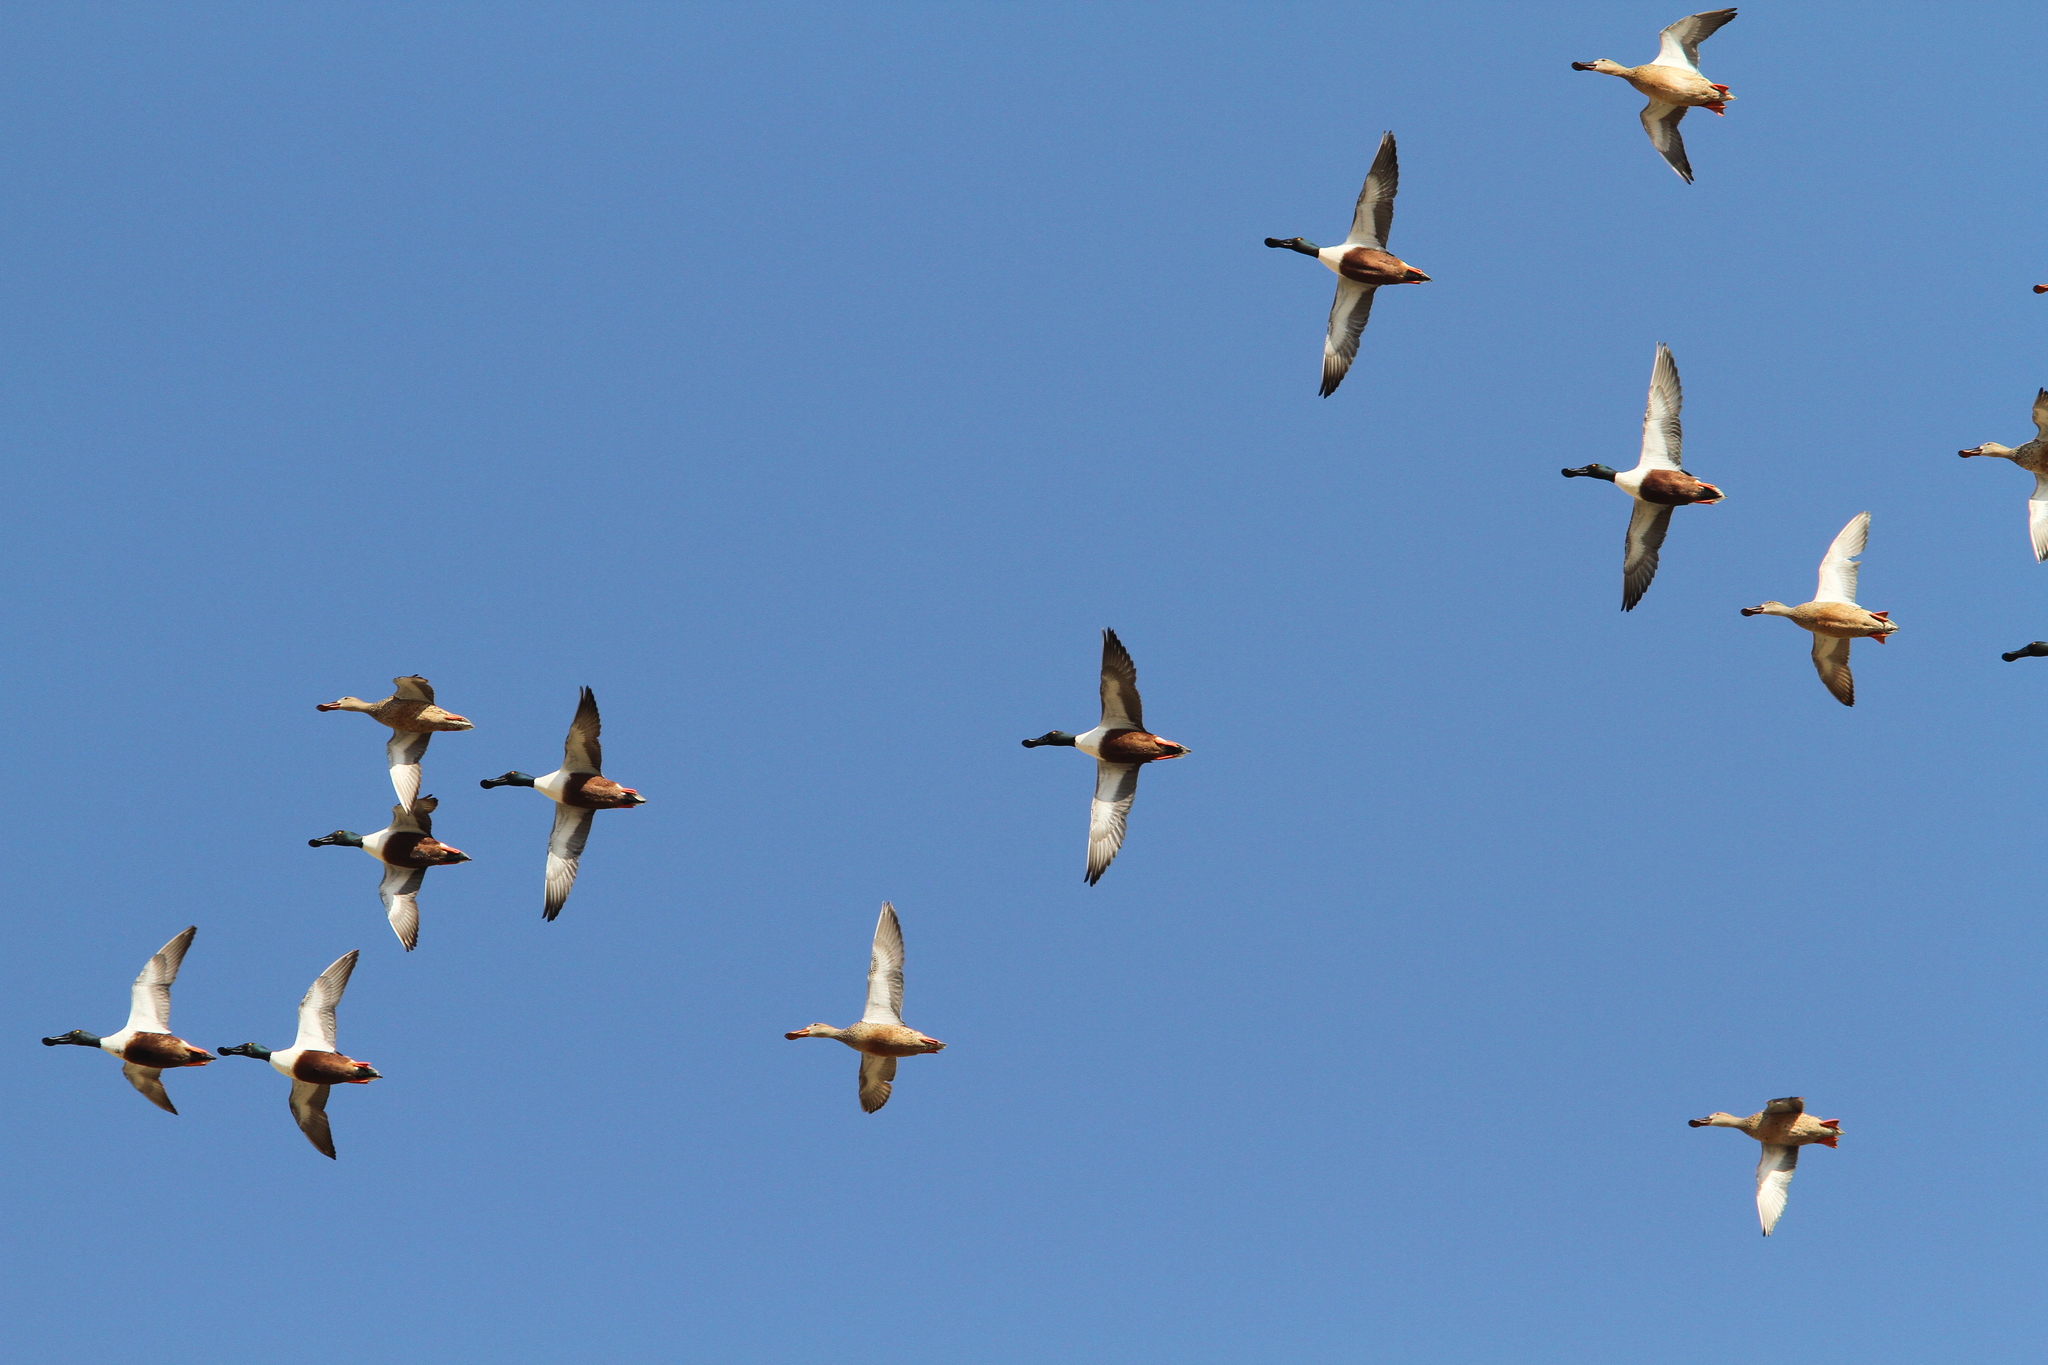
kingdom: Animalia
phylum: Chordata
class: Aves
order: Anseriformes
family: Anatidae
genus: Spatula
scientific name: Spatula clypeata
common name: Northern shoveler
